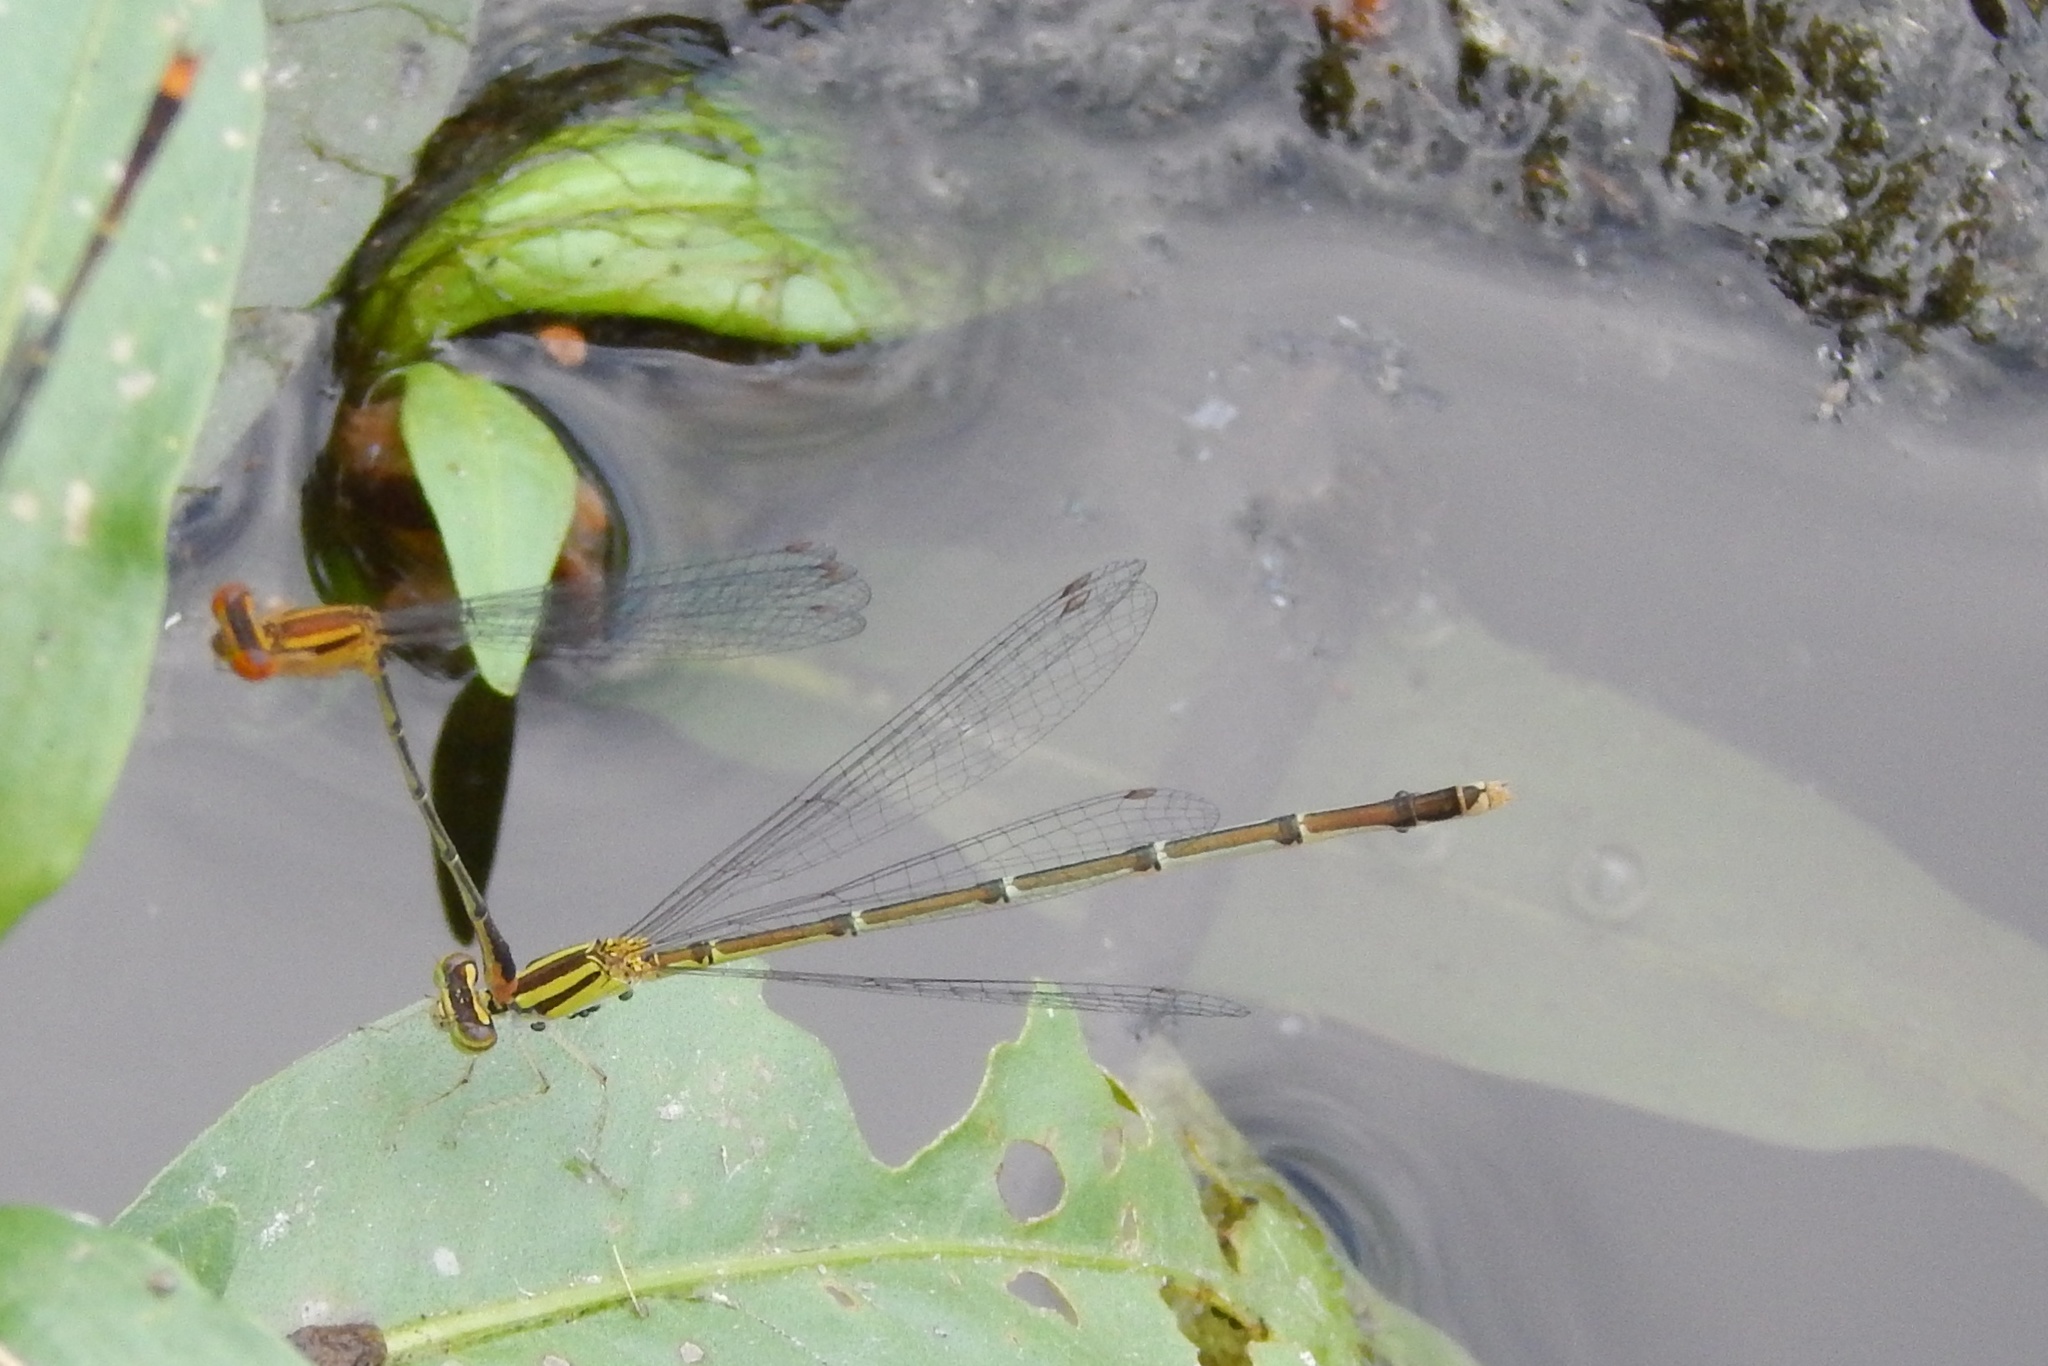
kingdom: Animalia
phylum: Arthropoda
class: Insecta
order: Odonata
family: Coenagrionidae
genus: Enallagma
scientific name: Enallagma signatum
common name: Orange bluet
